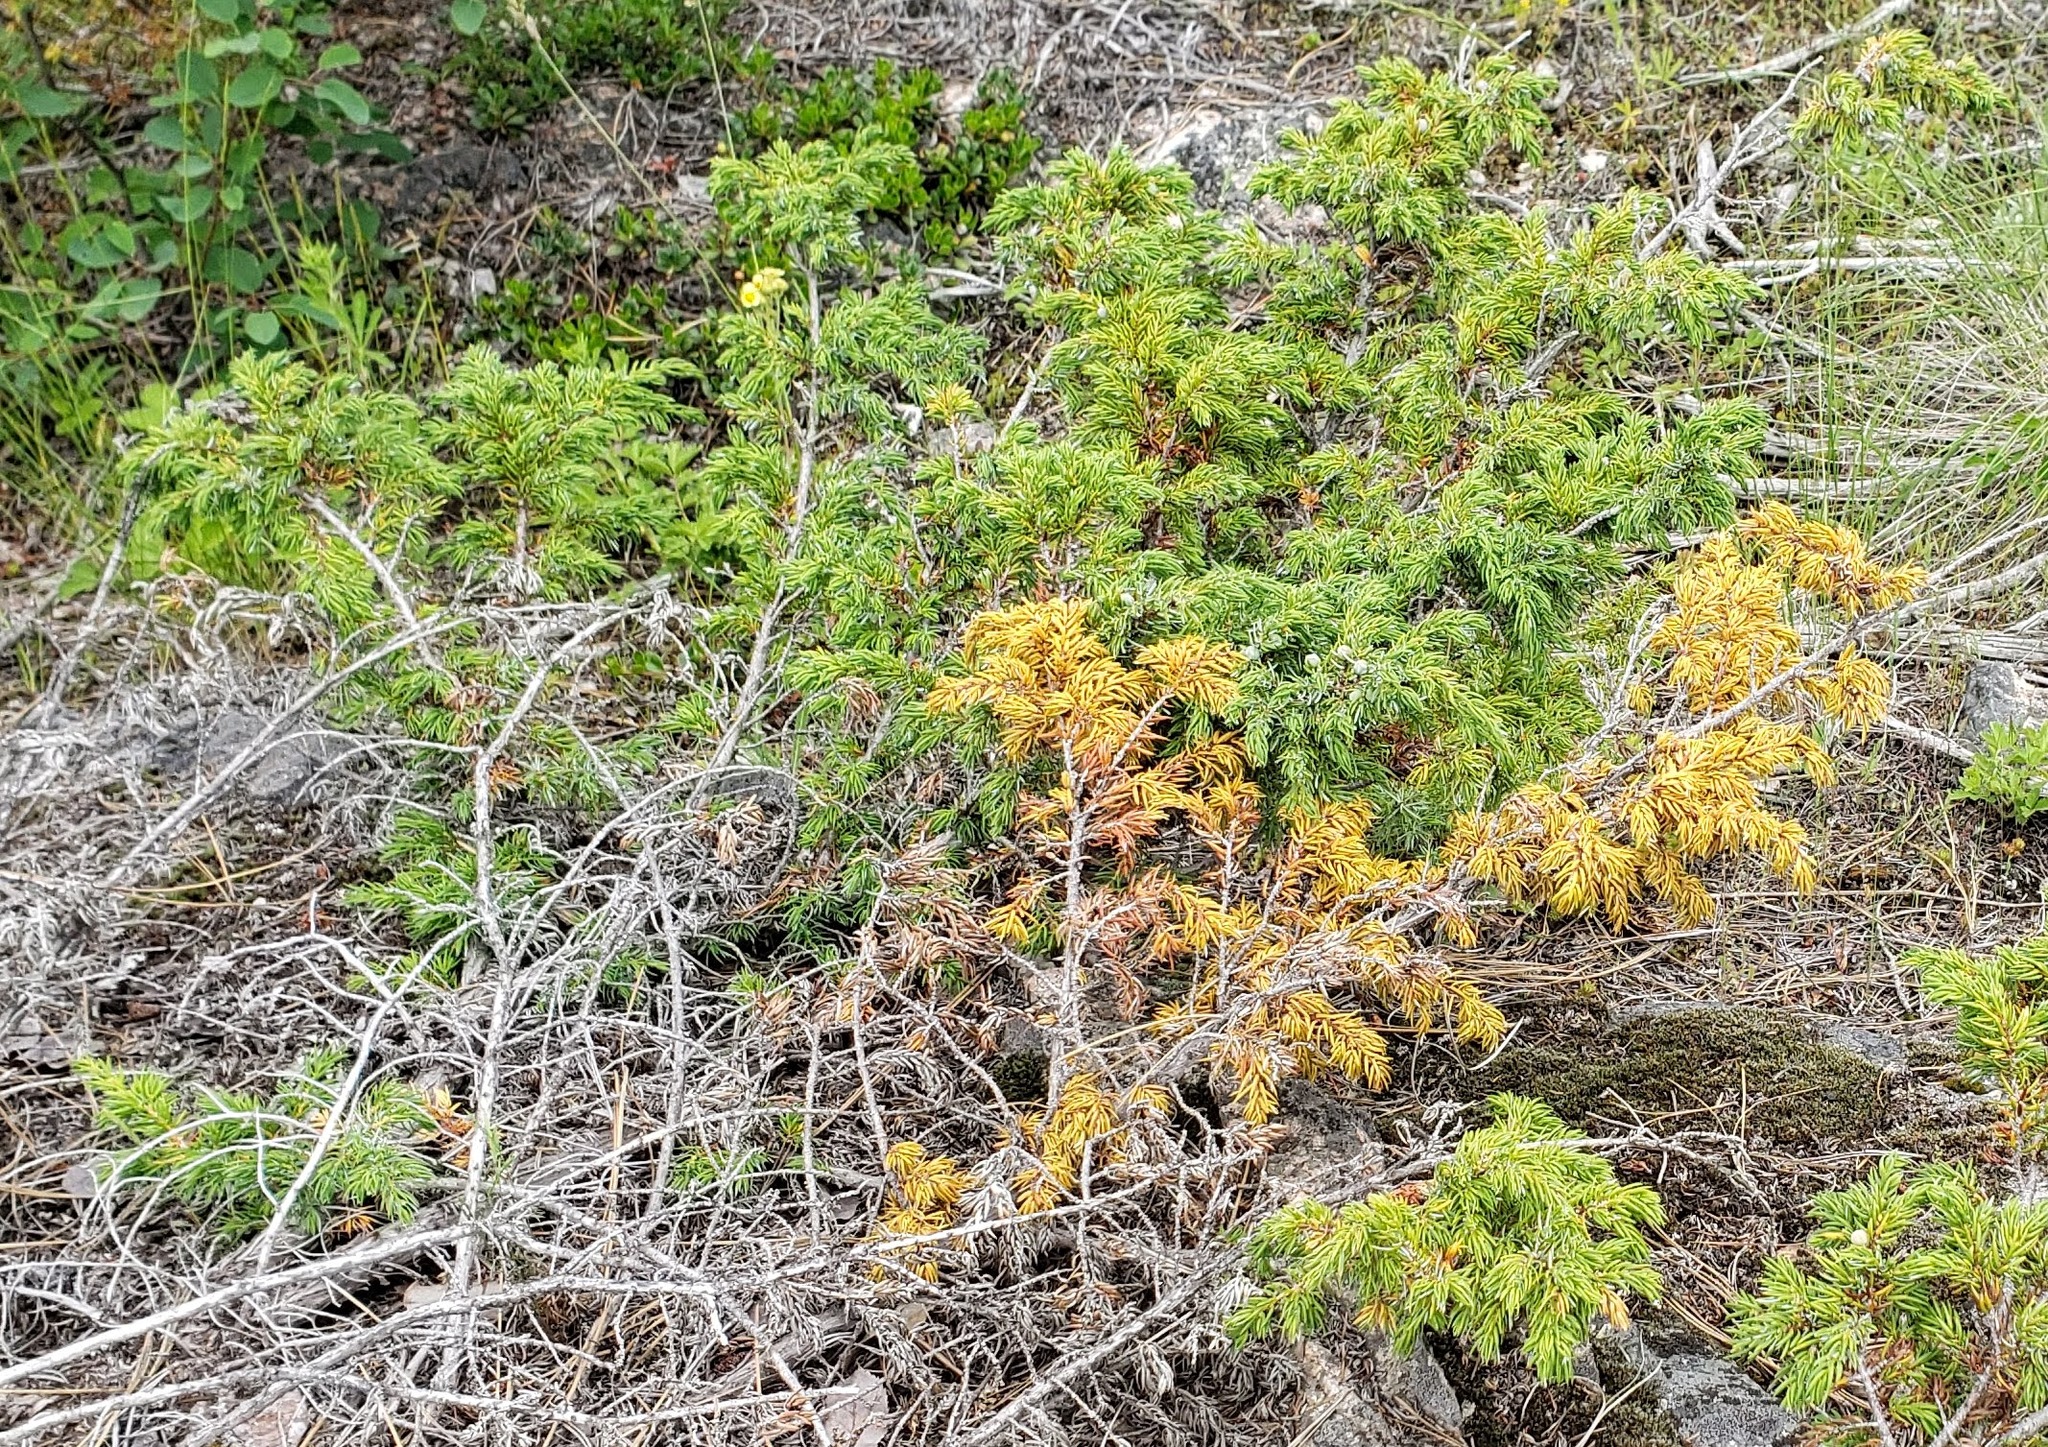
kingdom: Plantae
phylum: Tracheophyta
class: Pinopsida
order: Pinales
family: Cupressaceae
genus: Juniperus
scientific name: Juniperus communis
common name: Common juniper
